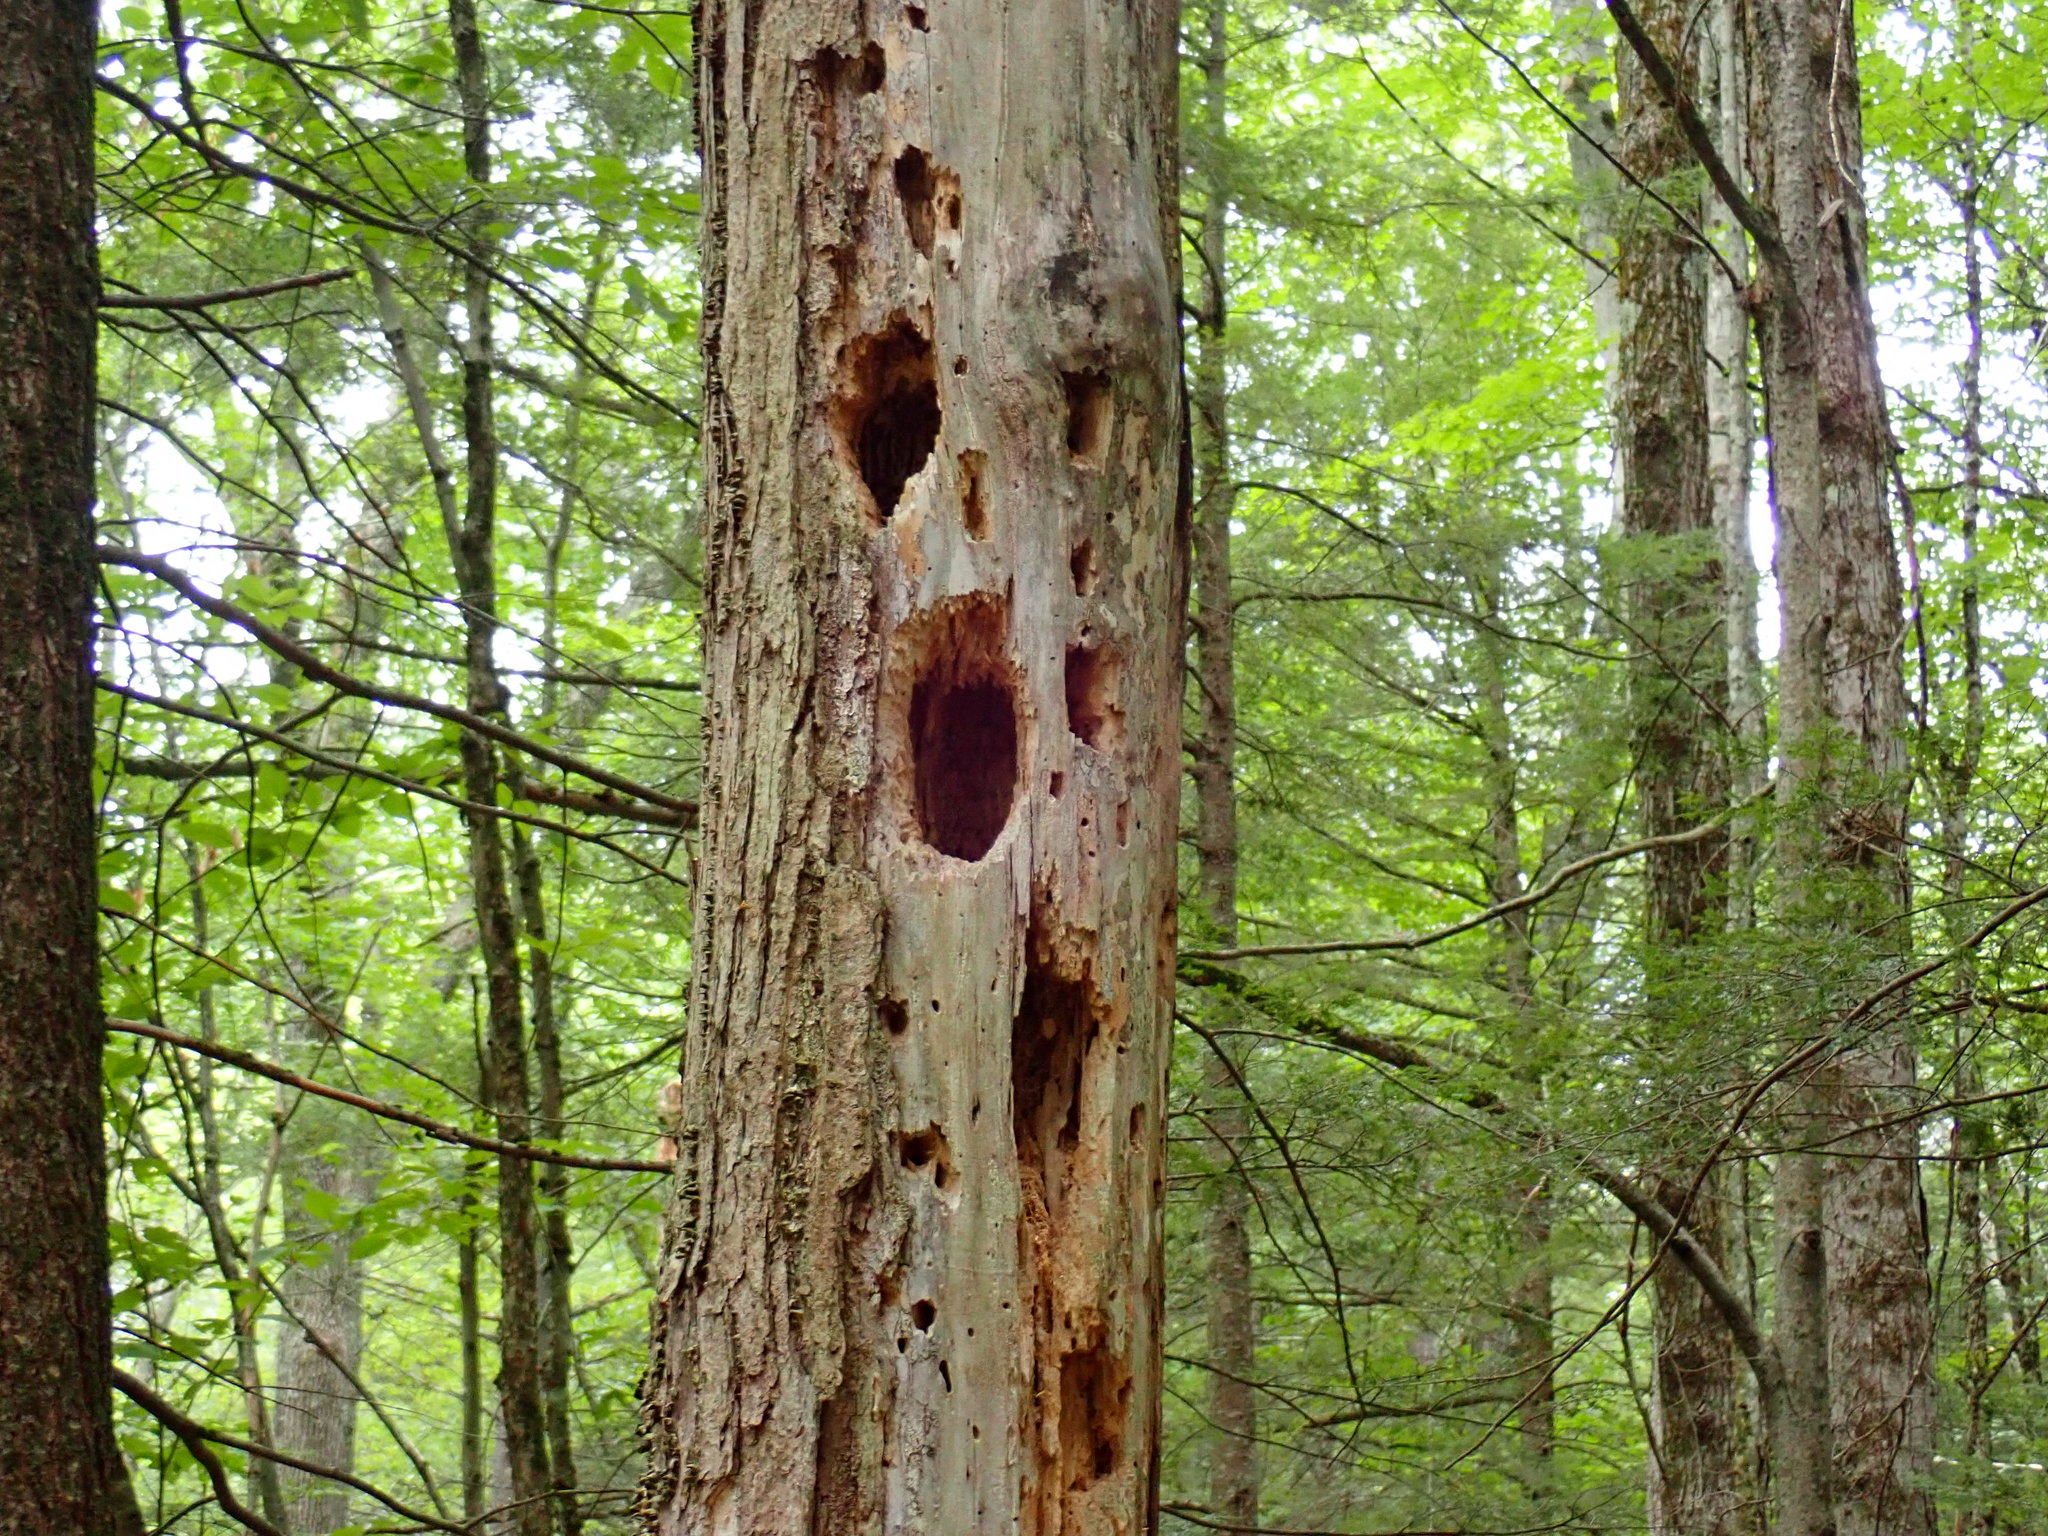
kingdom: Animalia
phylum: Chordata
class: Aves
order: Piciformes
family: Picidae
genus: Dryocopus
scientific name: Dryocopus pileatus
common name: Pileated woodpecker
